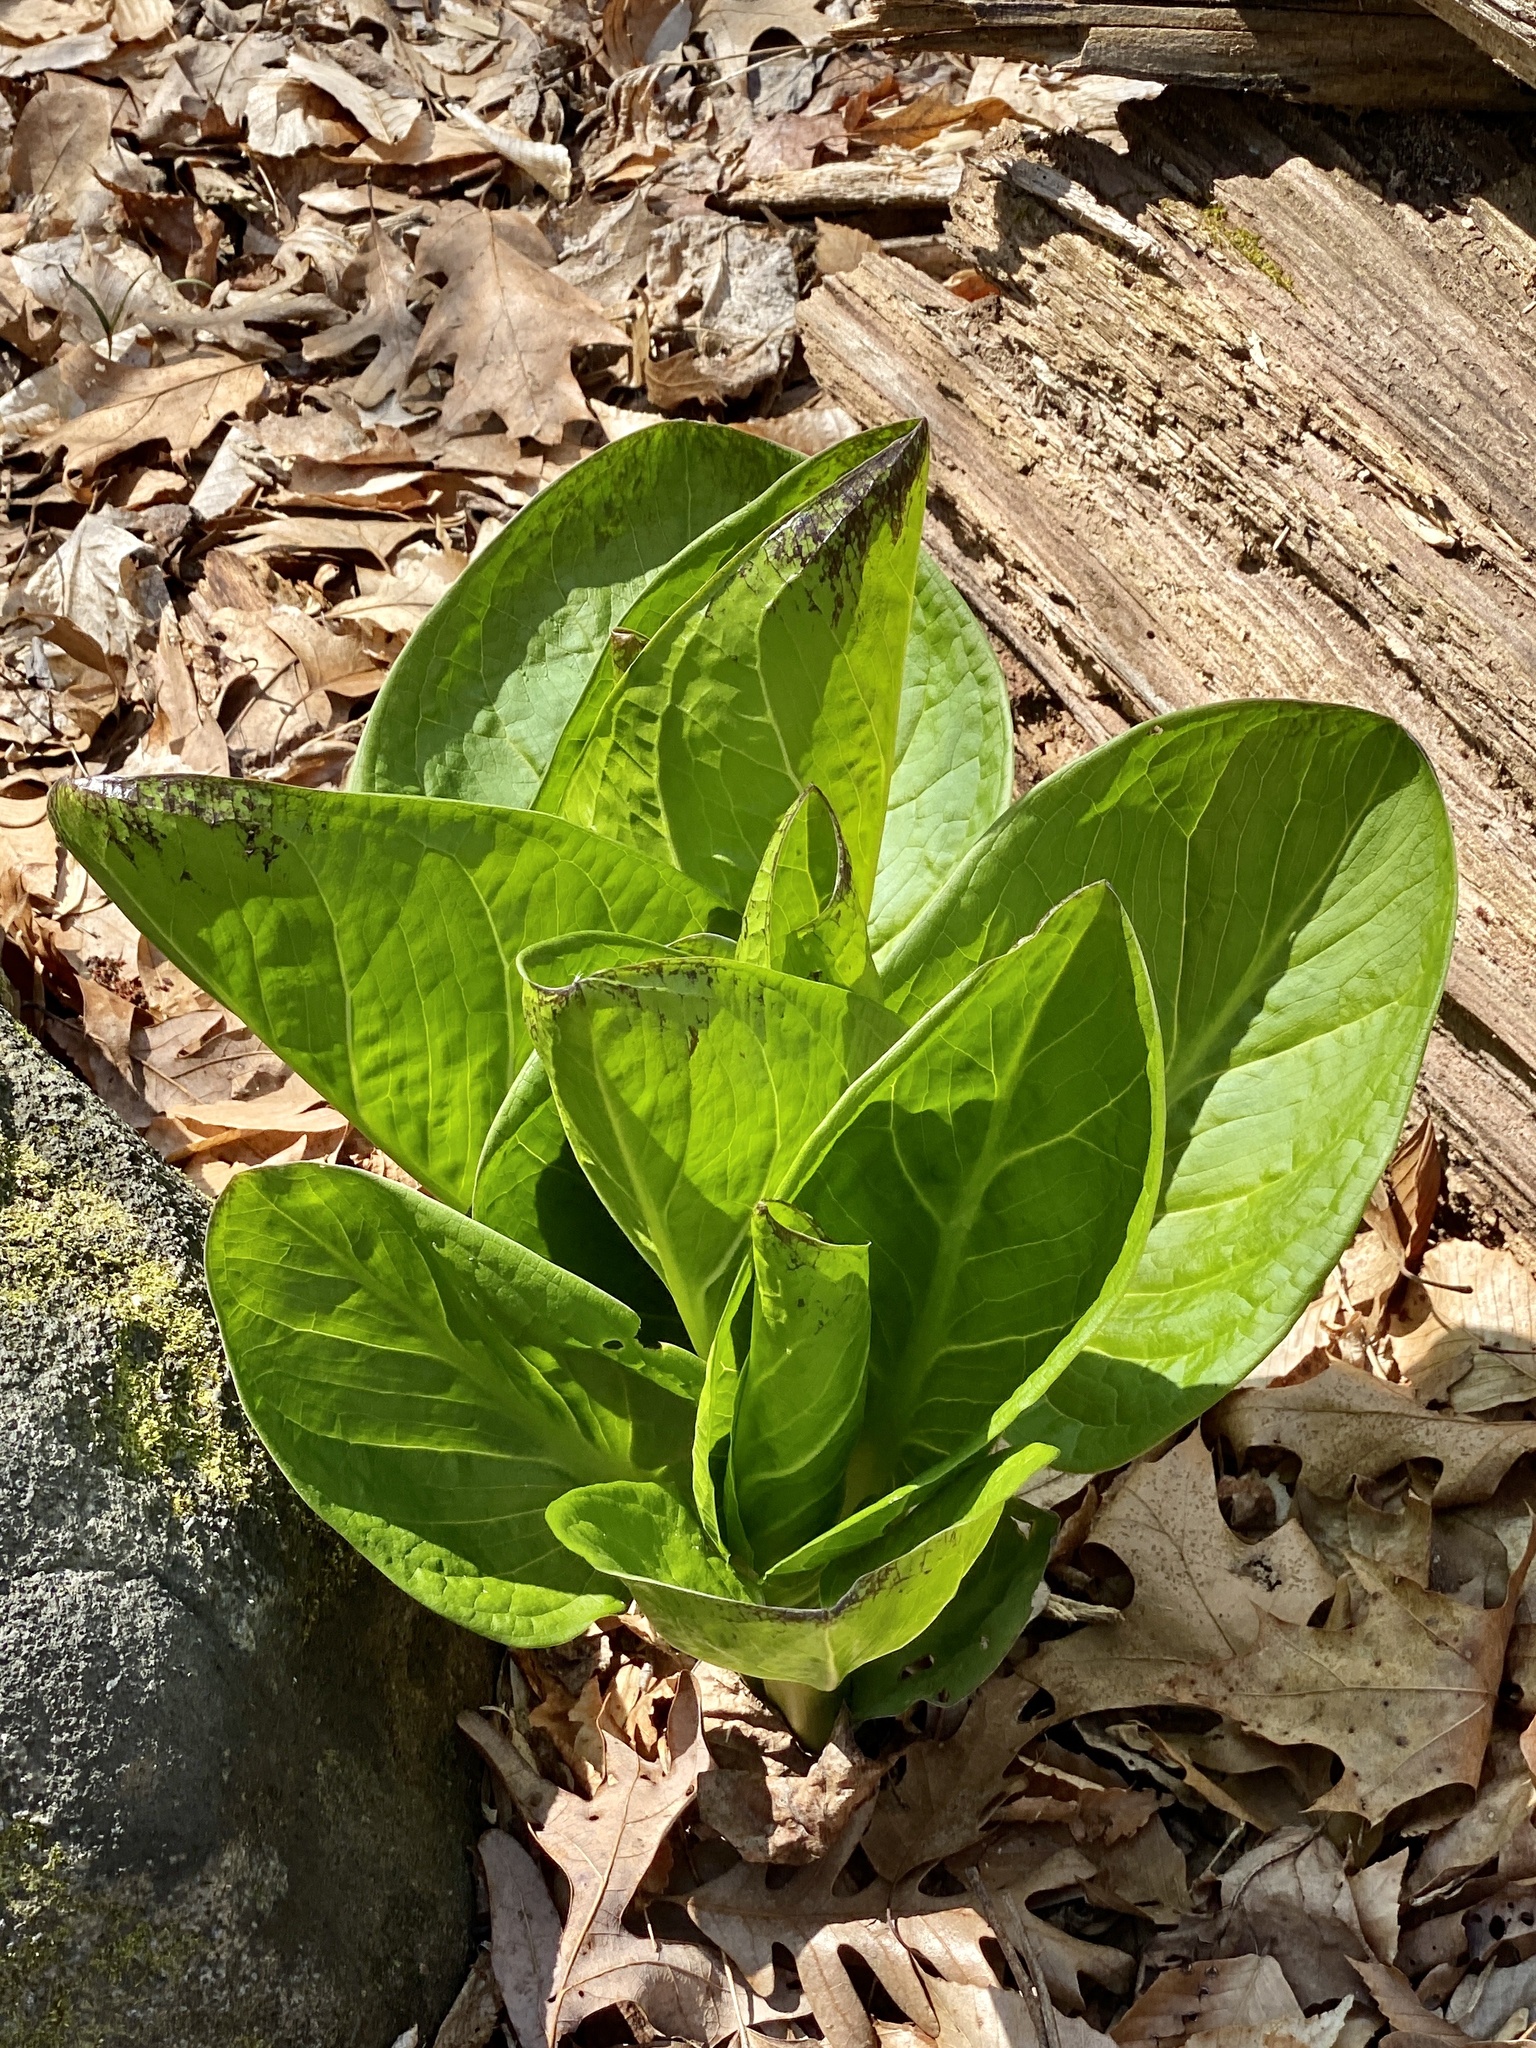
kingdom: Plantae
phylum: Tracheophyta
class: Liliopsida
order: Alismatales
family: Araceae
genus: Symplocarpus
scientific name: Symplocarpus foetidus
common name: Eastern skunk cabbage
